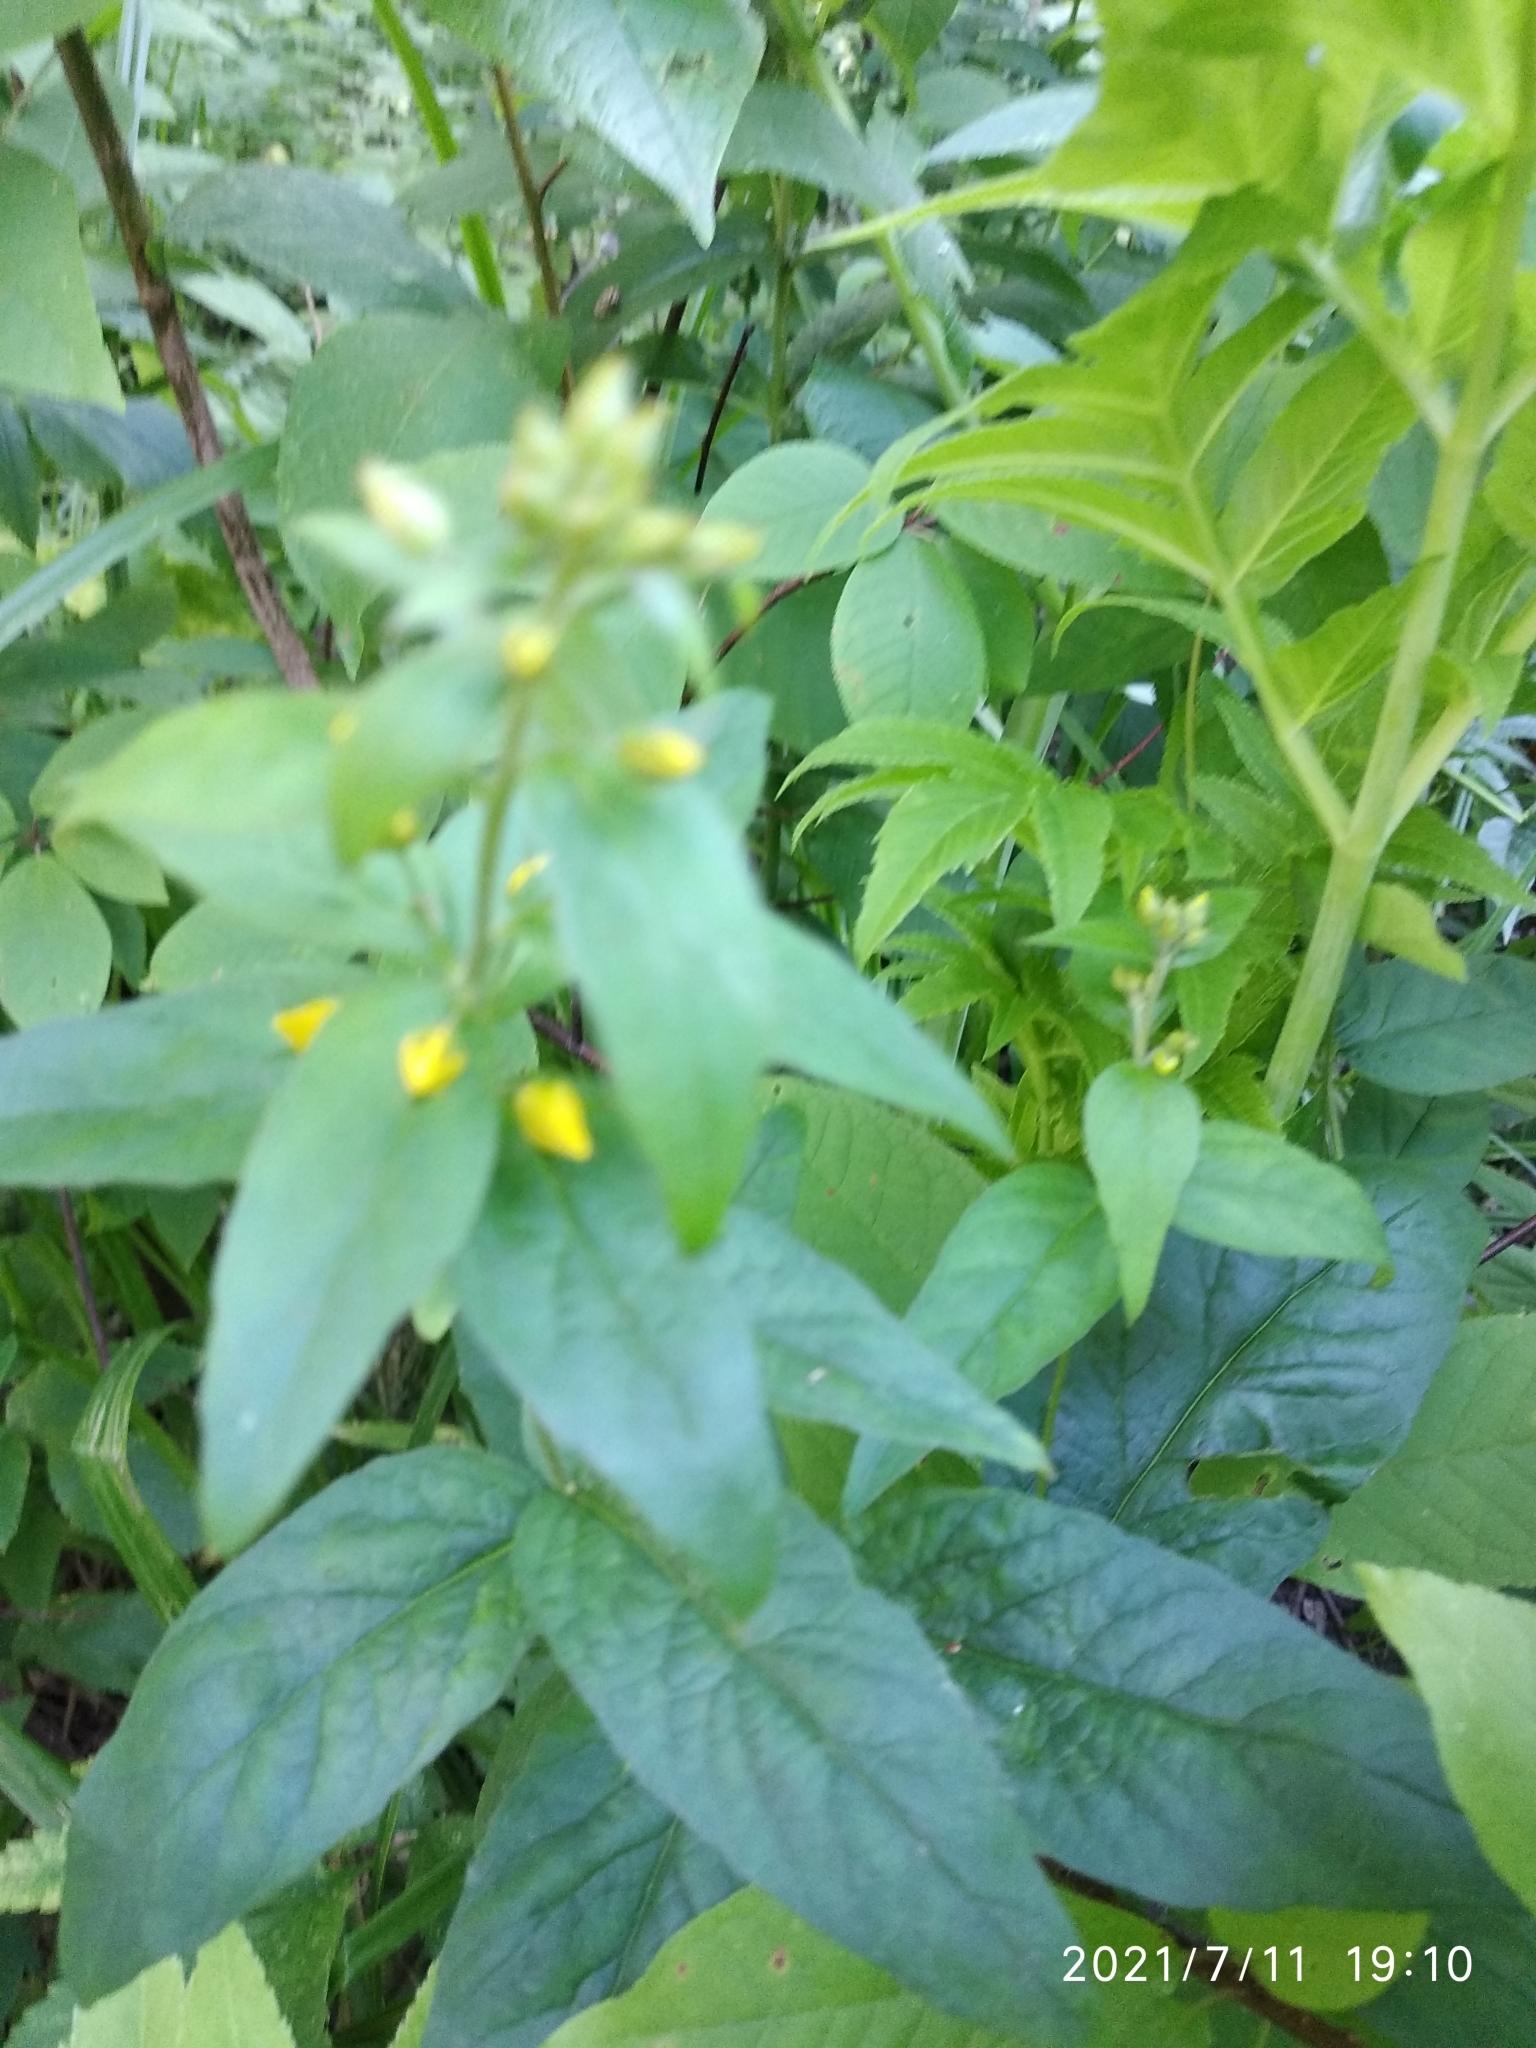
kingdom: Plantae
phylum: Tracheophyta
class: Magnoliopsida
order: Ericales
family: Primulaceae
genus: Lysimachia
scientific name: Lysimachia vulgaris
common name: Yellow loosestrife
